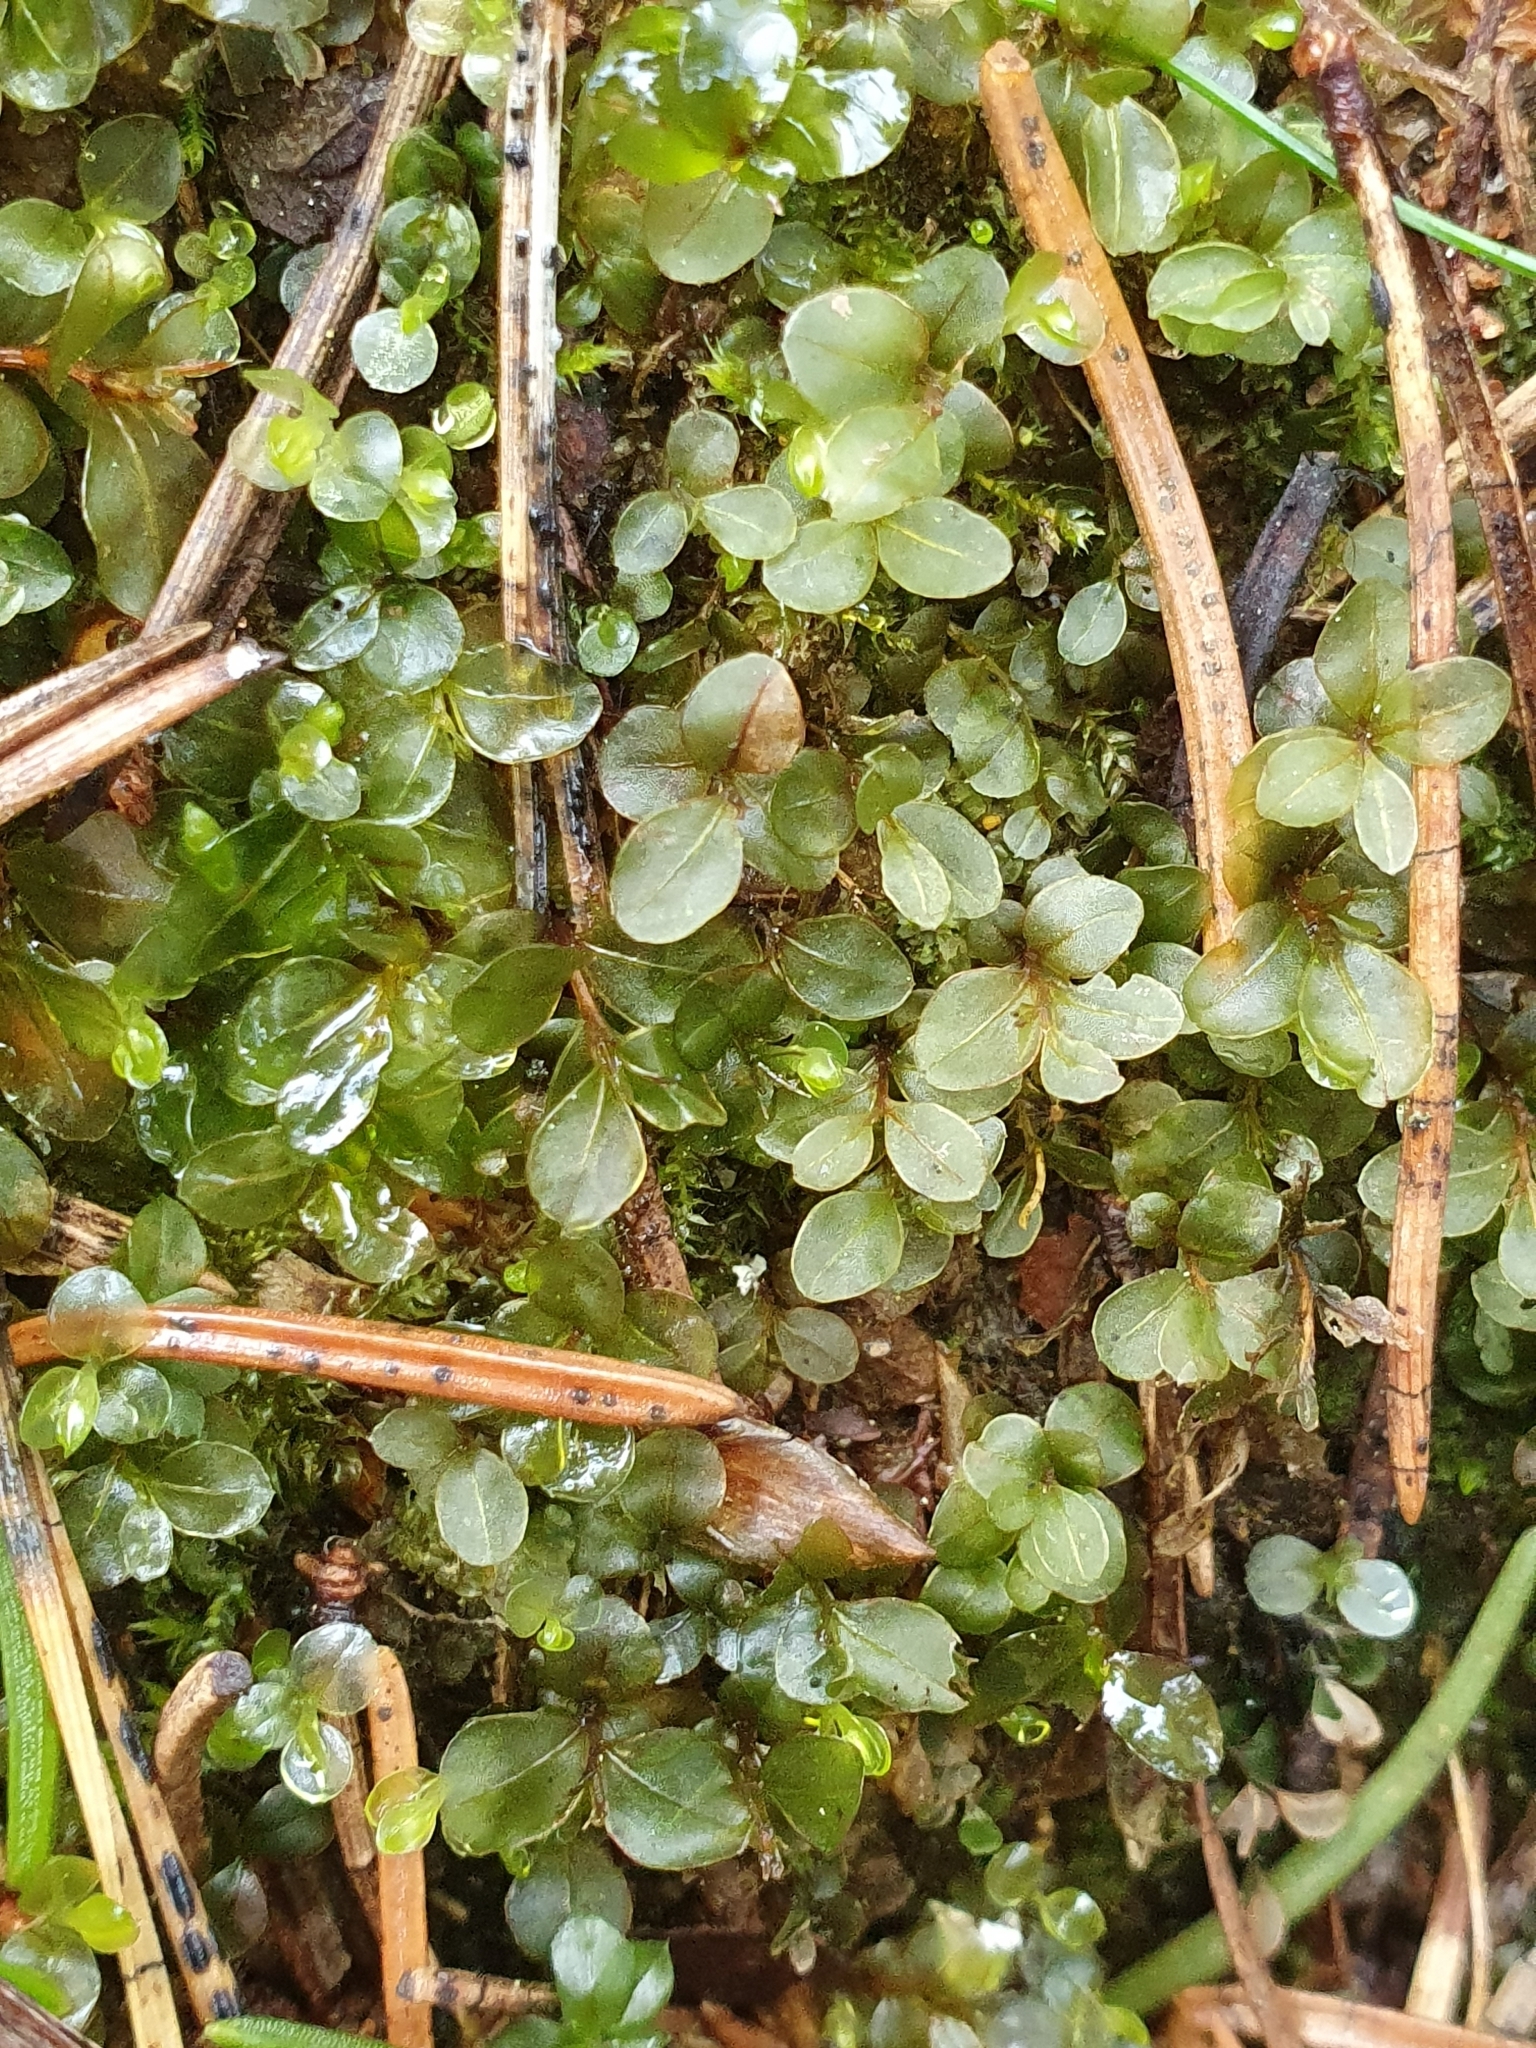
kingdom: Plantae
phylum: Bryophyta
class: Bryopsida
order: Bryales
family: Mniaceae
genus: Rhizomnium
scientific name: Rhizomnium punctatum
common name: Dotted leafy moss
